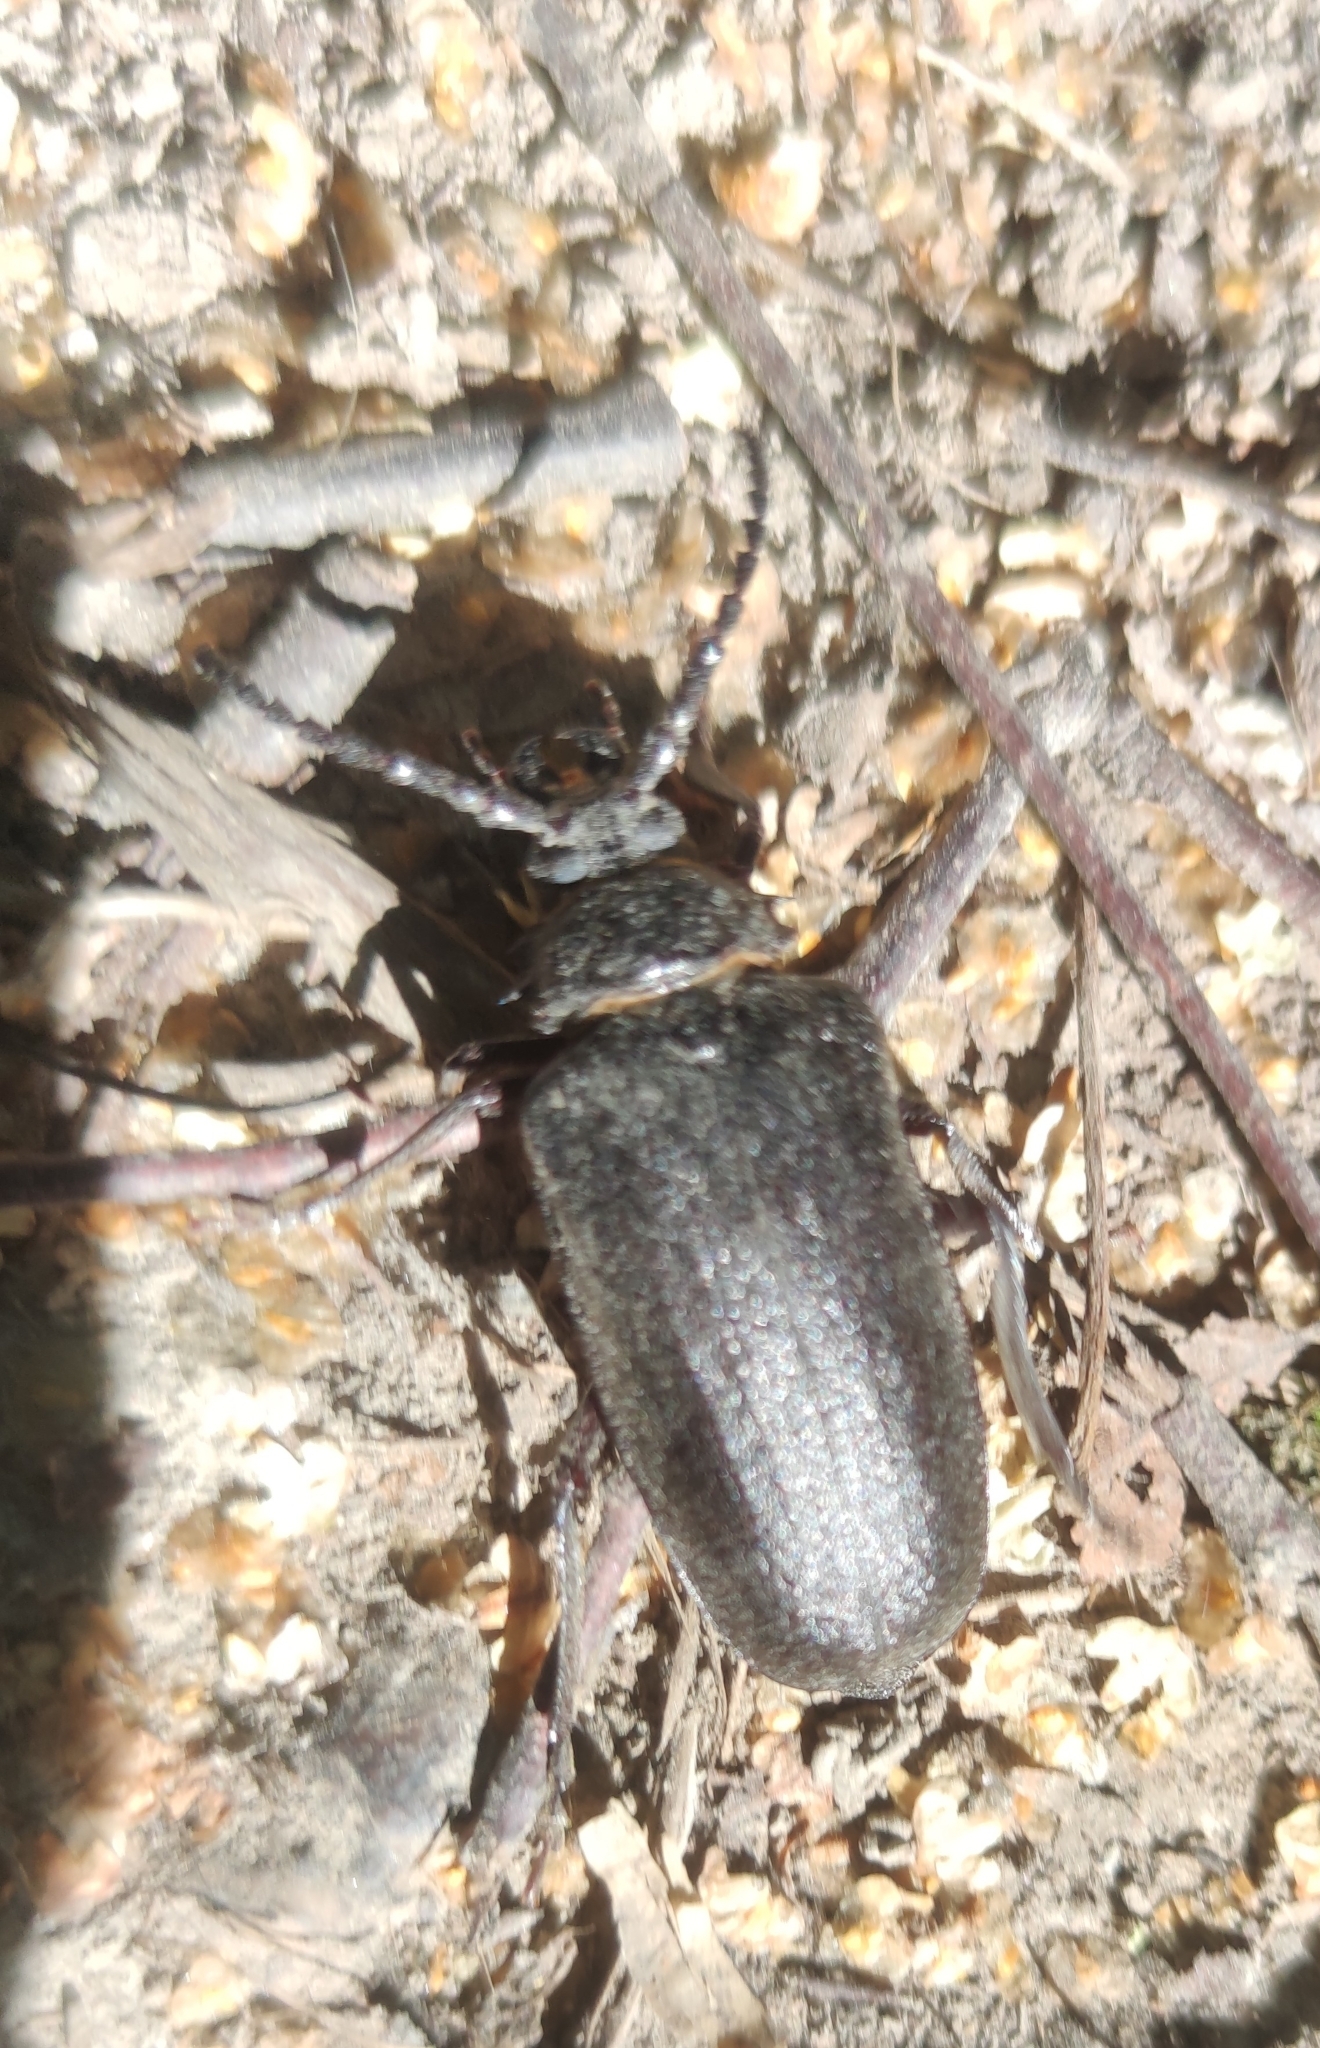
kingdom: Animalia
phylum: Arthropoda
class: Insecta
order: Coleoptera
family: Cerambycidae
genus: Prionus
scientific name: Prionus coriarius
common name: Tanner beetle
